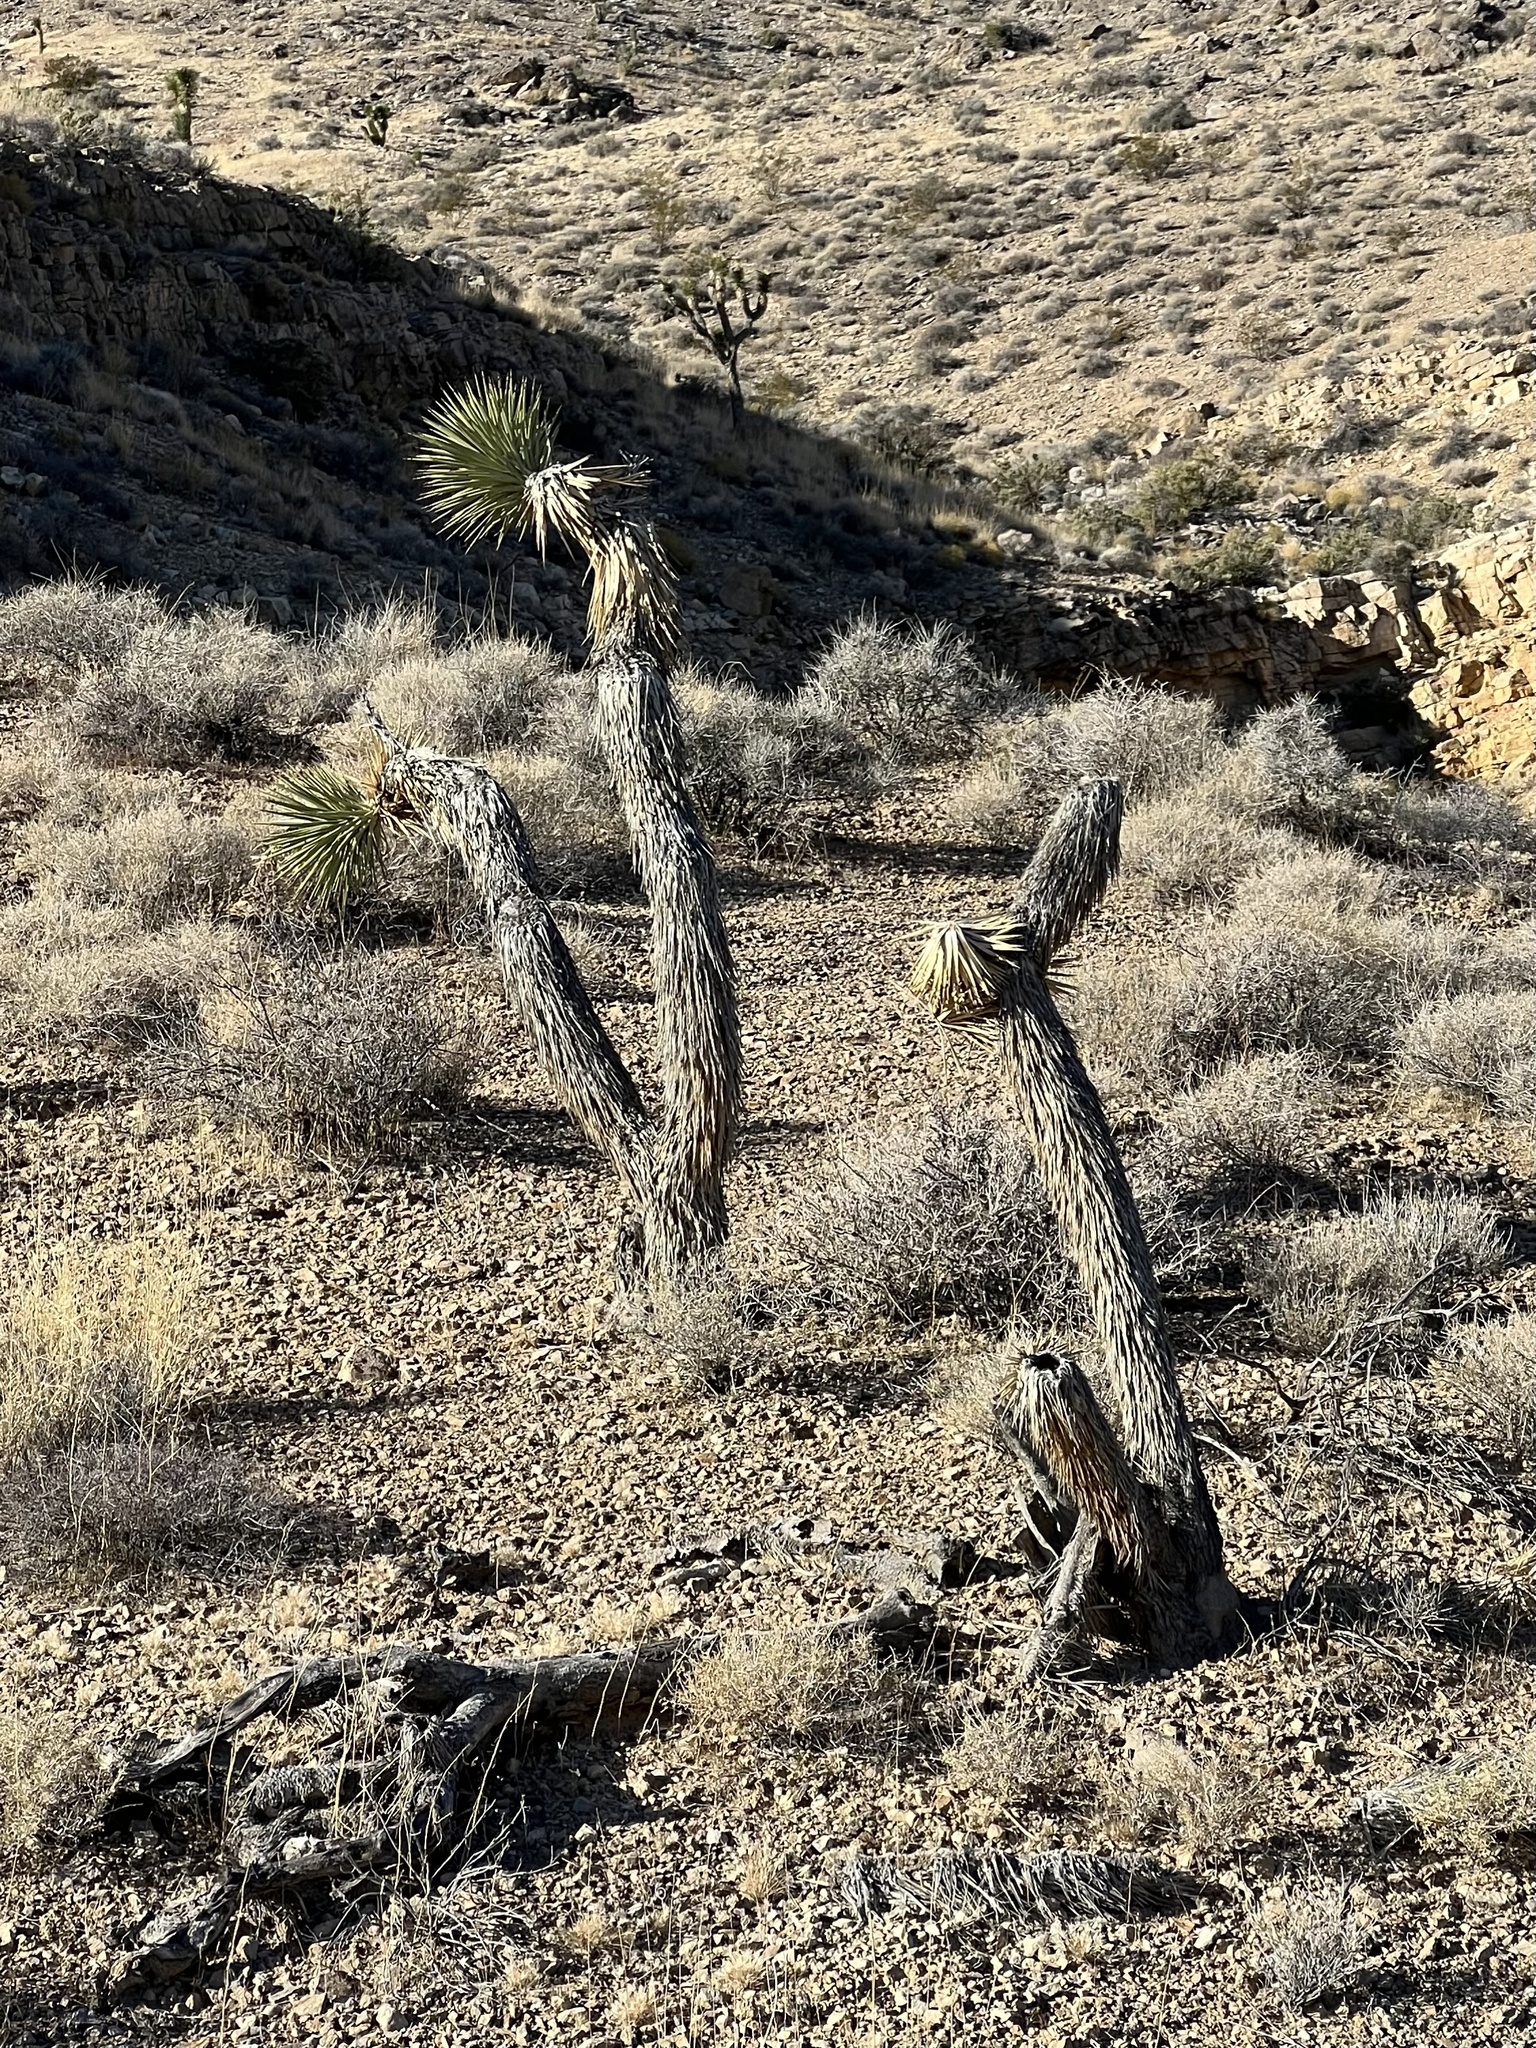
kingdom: Plantae
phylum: Tracheophyta
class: Liliopsida
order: Asparagales
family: Asparagaceae
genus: Yucca
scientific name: Yucca brevifolia
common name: Joshua tree
